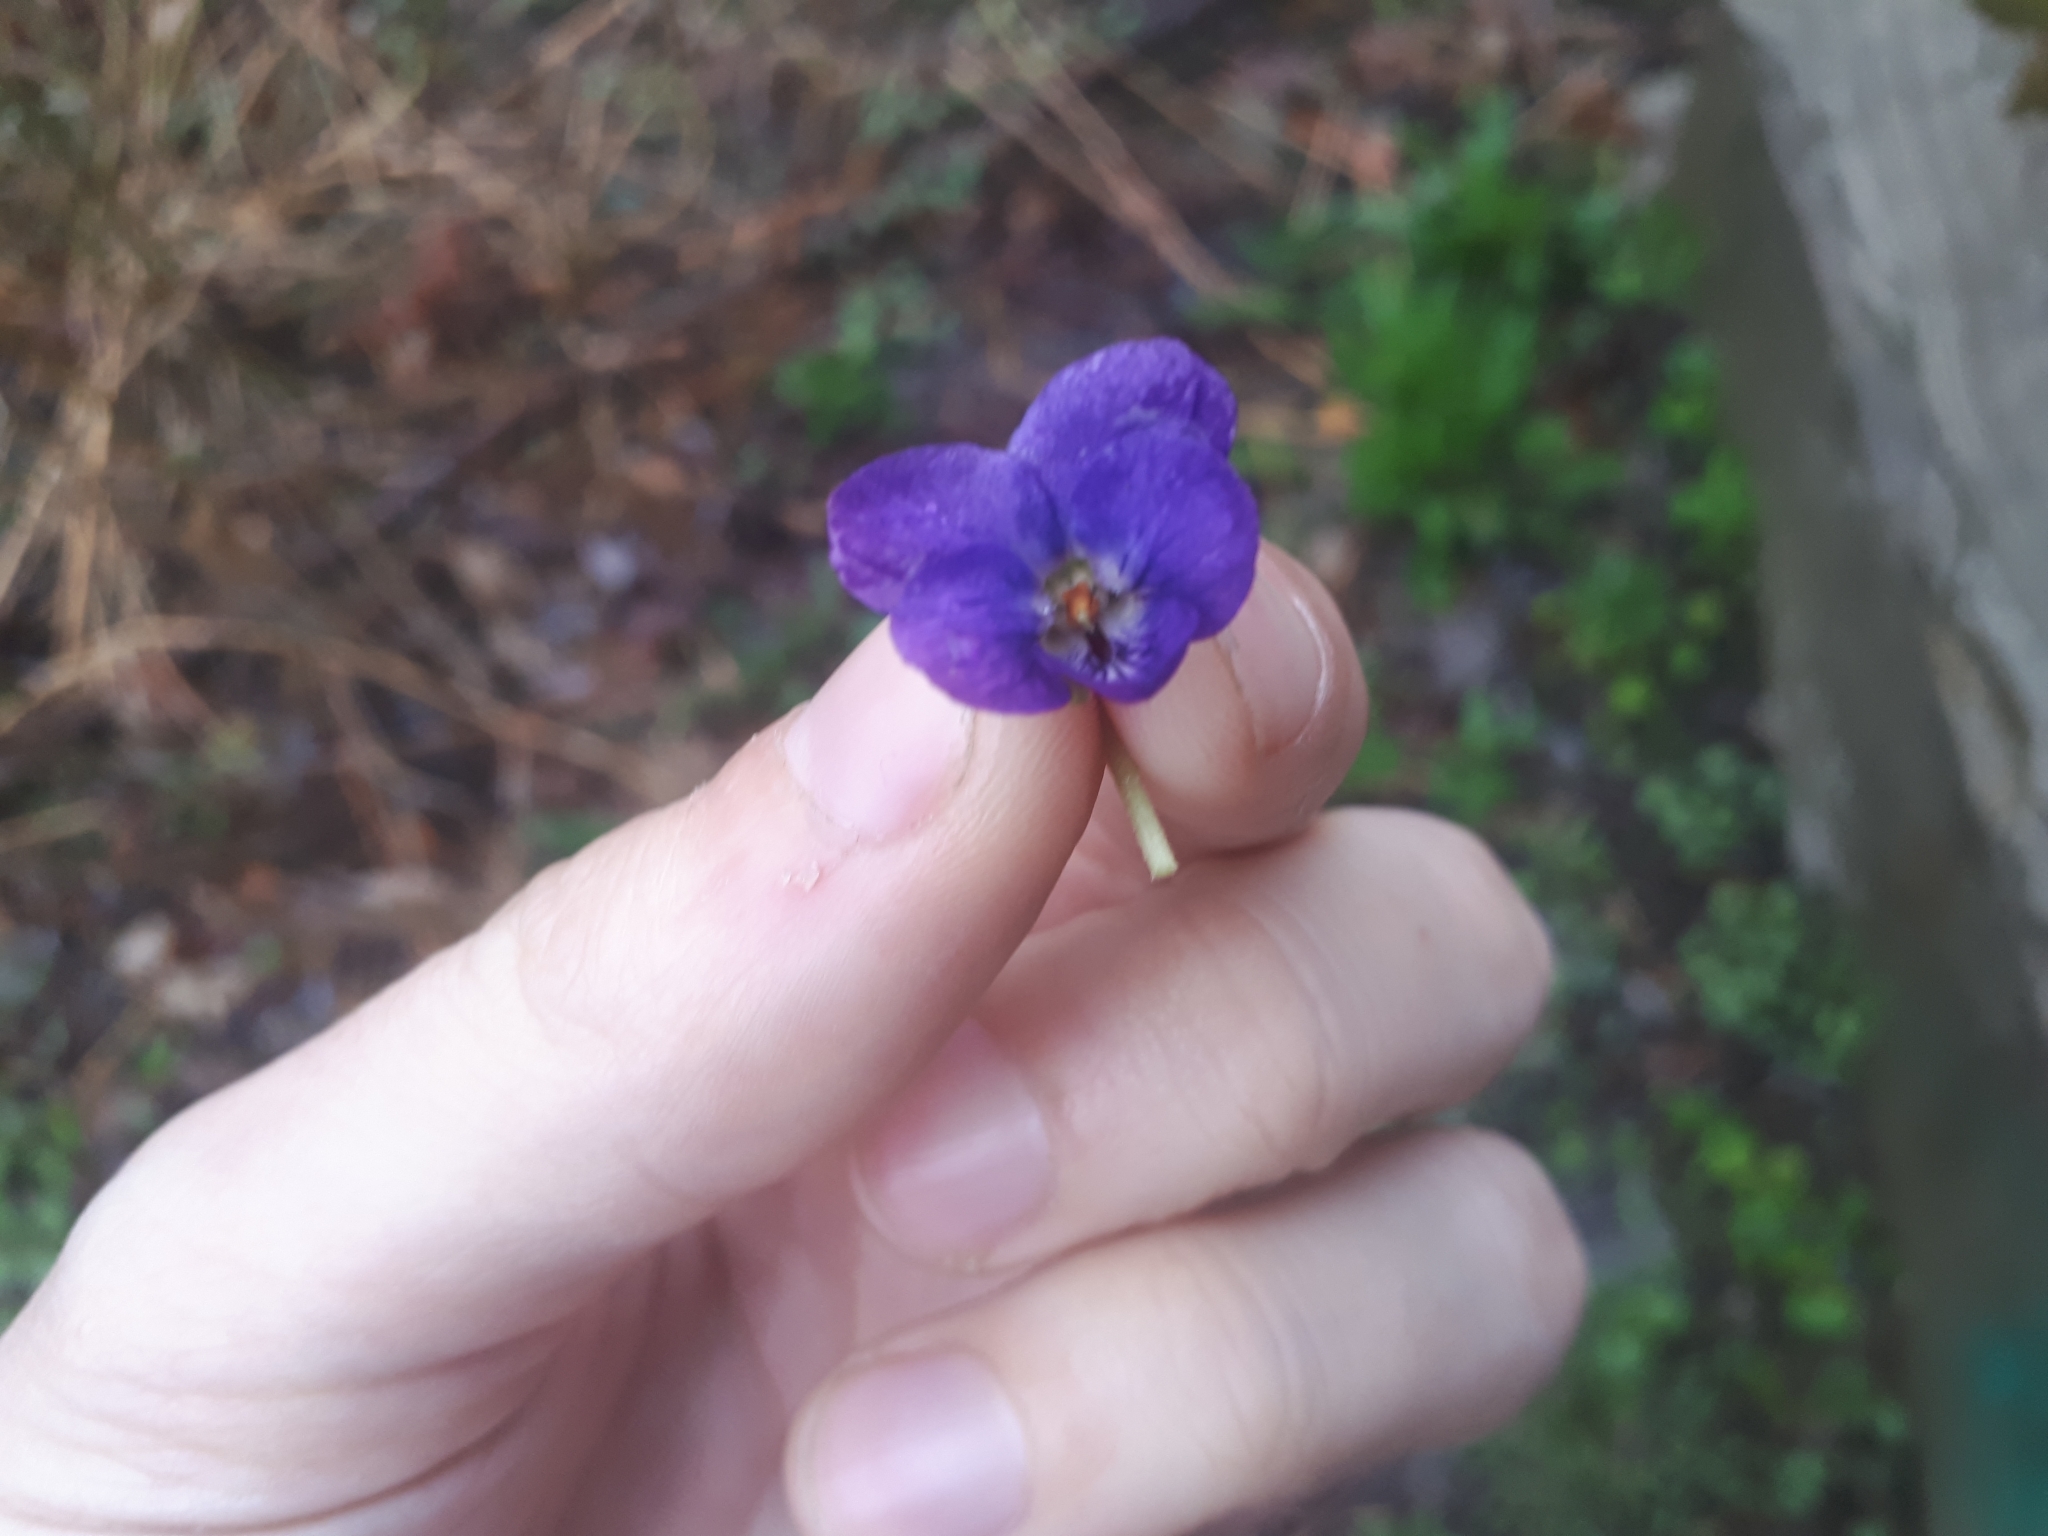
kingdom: Plantae
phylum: Tracheophyta
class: Magnoliopsida
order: Malpighiales
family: Violaceae
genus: Viola
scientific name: Viola odorata
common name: Sweet violet
